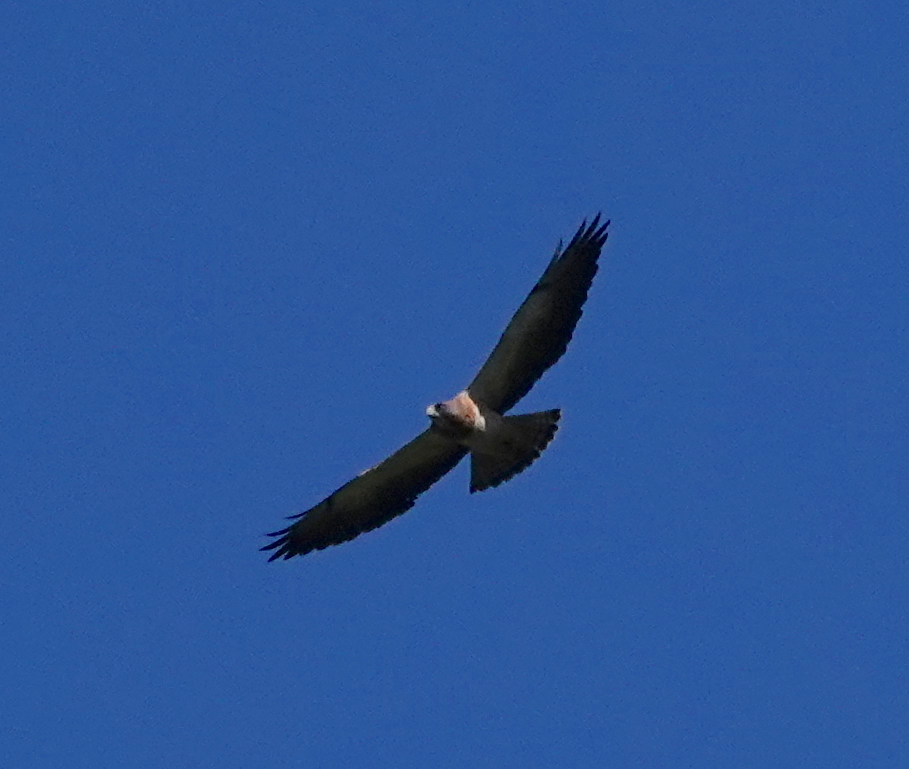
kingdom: Animalia
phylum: Chordata
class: Aves
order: Accipitriformes
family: Accipitridae
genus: Buteo
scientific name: Buteo swainsoni
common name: Swainson's hawk
